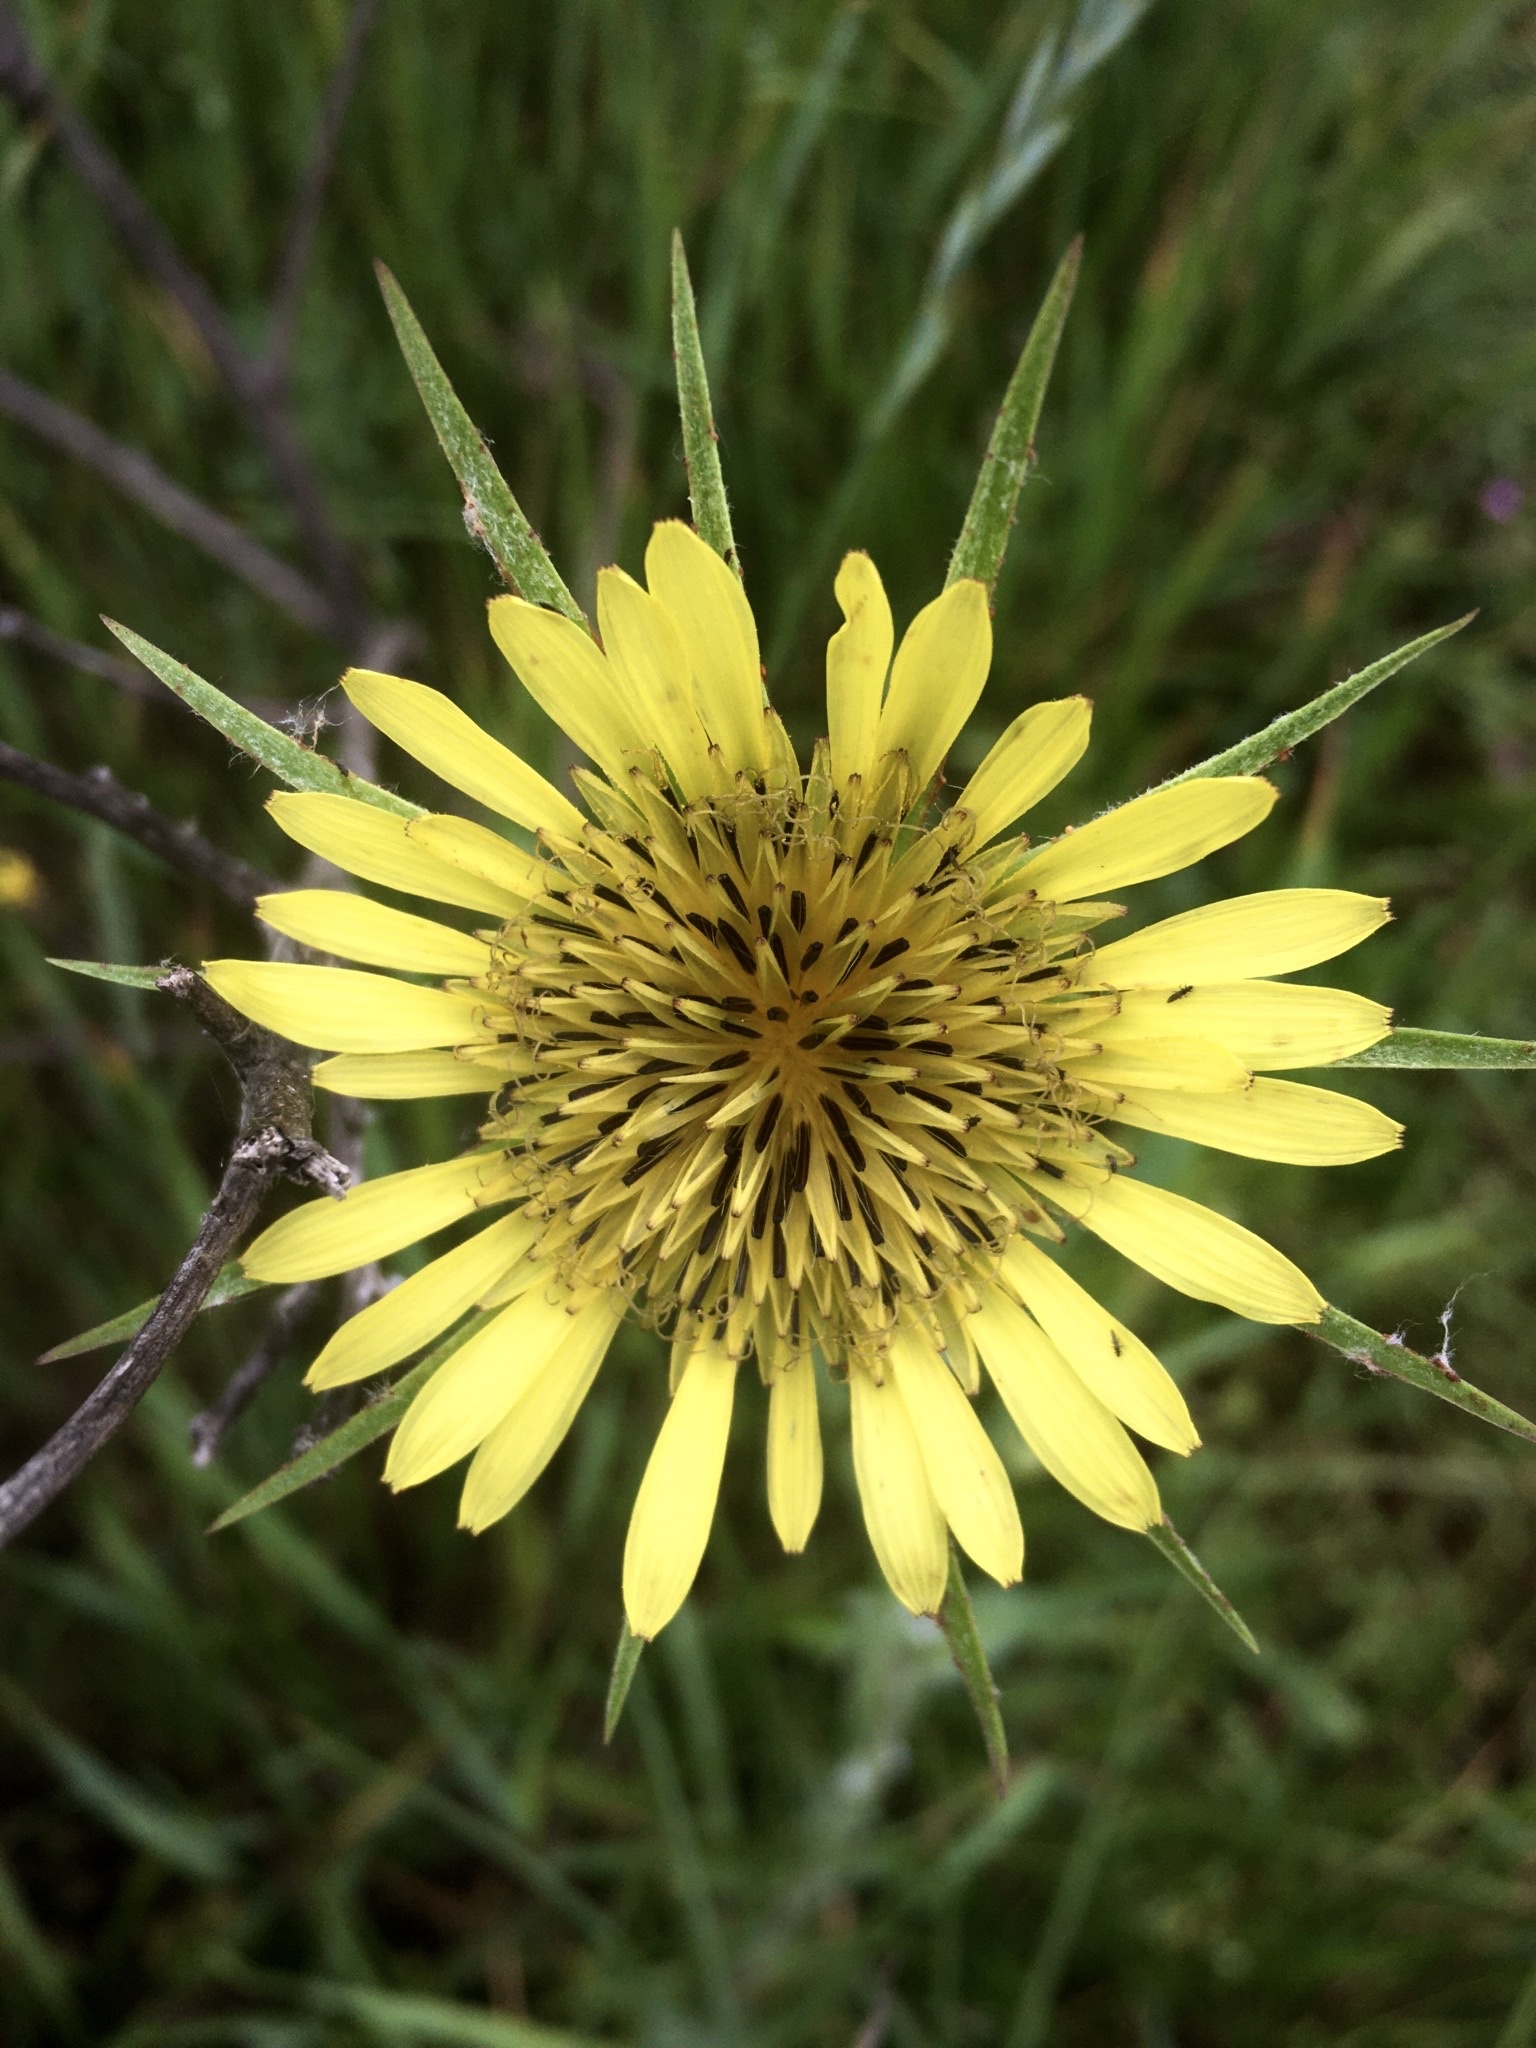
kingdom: Plantae
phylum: Tracheophyta
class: Magnoliopsida
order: Asterales
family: Asteraceae
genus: Tragopogon
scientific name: Tragopogon dubius
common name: Yellow salsify
